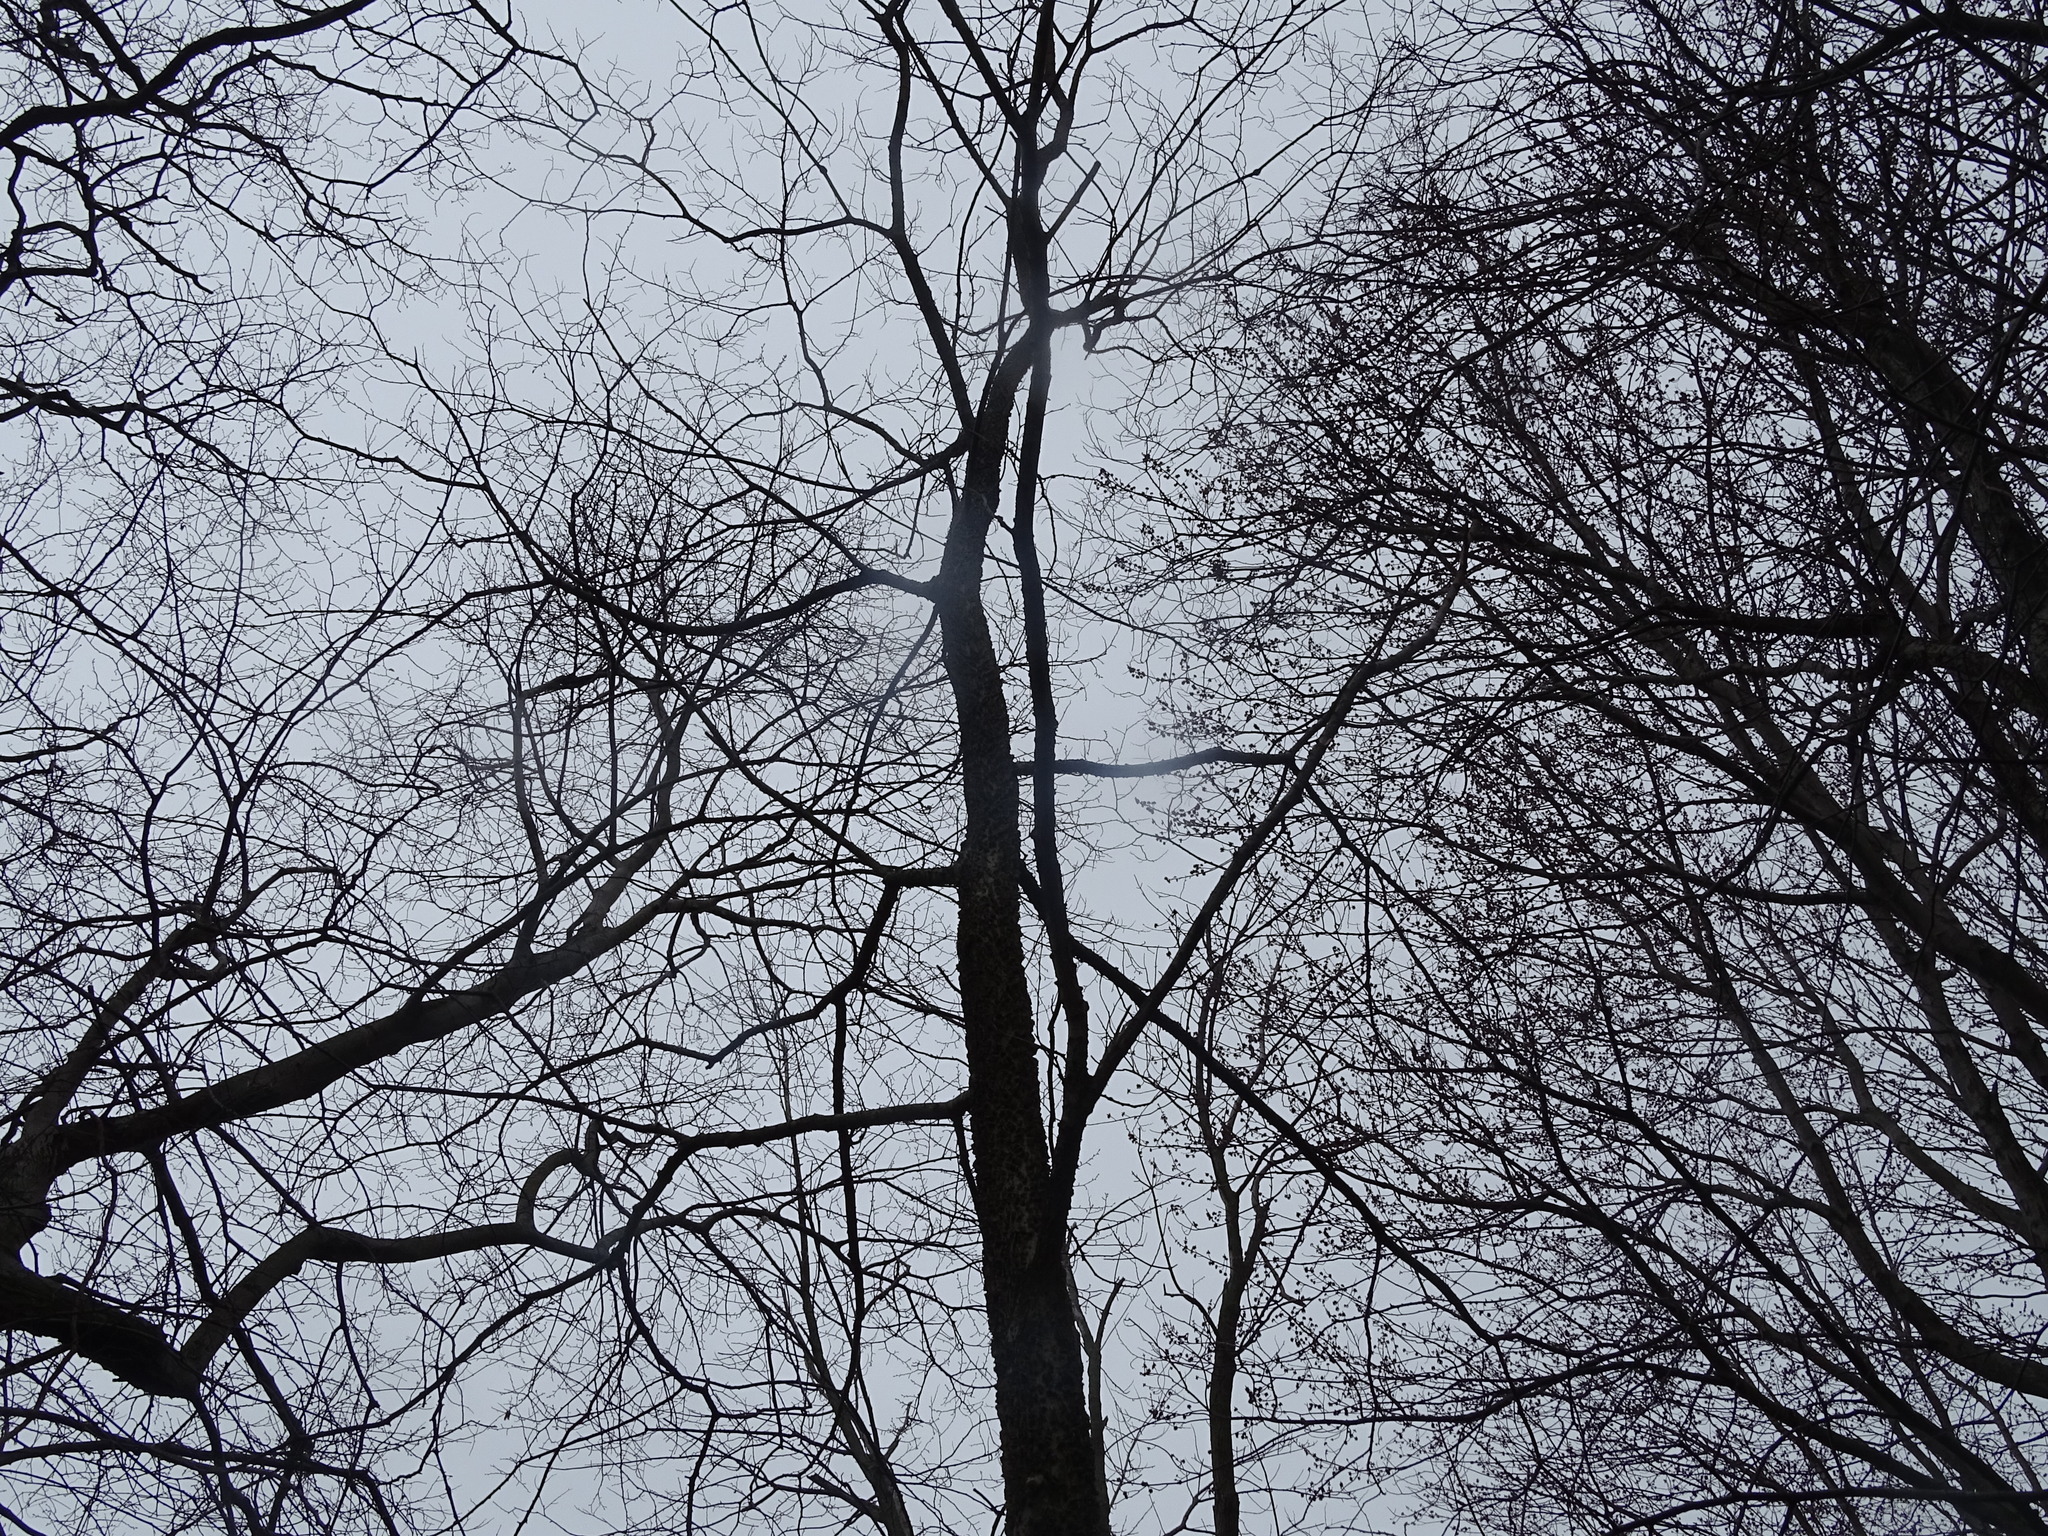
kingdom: Plantae
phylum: Tracheophyta
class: Magnoliopsida
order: Rosales
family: Cannabaceae
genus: Celtis
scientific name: Celtis occidentalis
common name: Common hackberry
